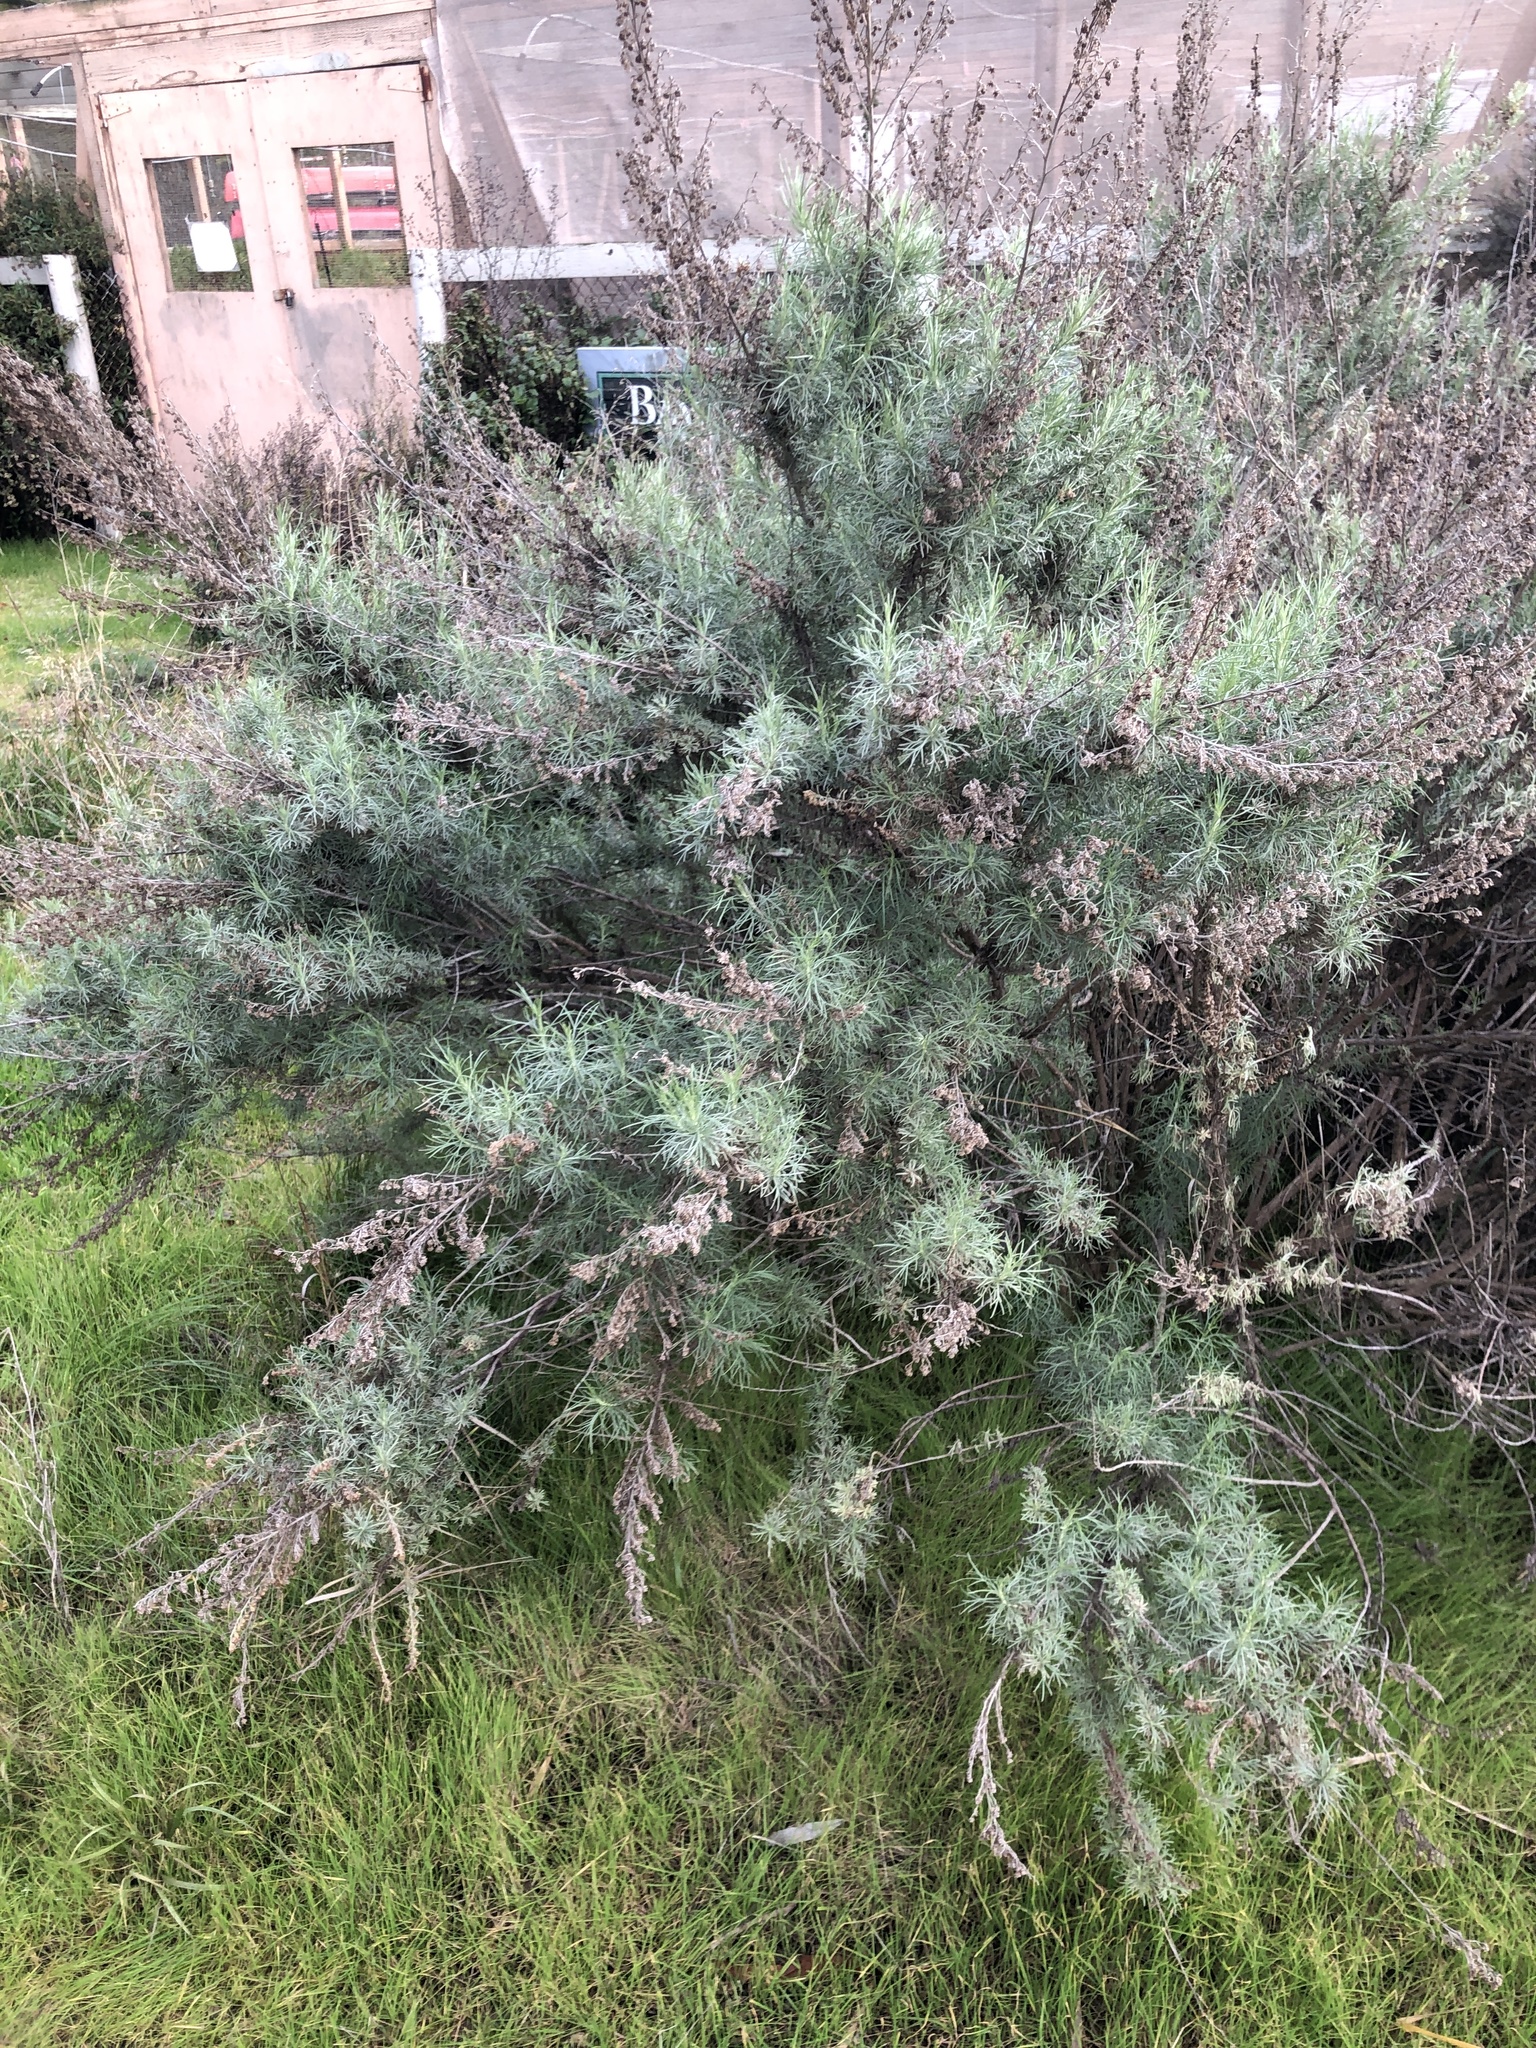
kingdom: Plantae
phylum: Tracheophyta
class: Magnoliopsida
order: Asterales
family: Asteraceae
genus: Artemisia
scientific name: Artemisia californica
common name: California sagebrush
